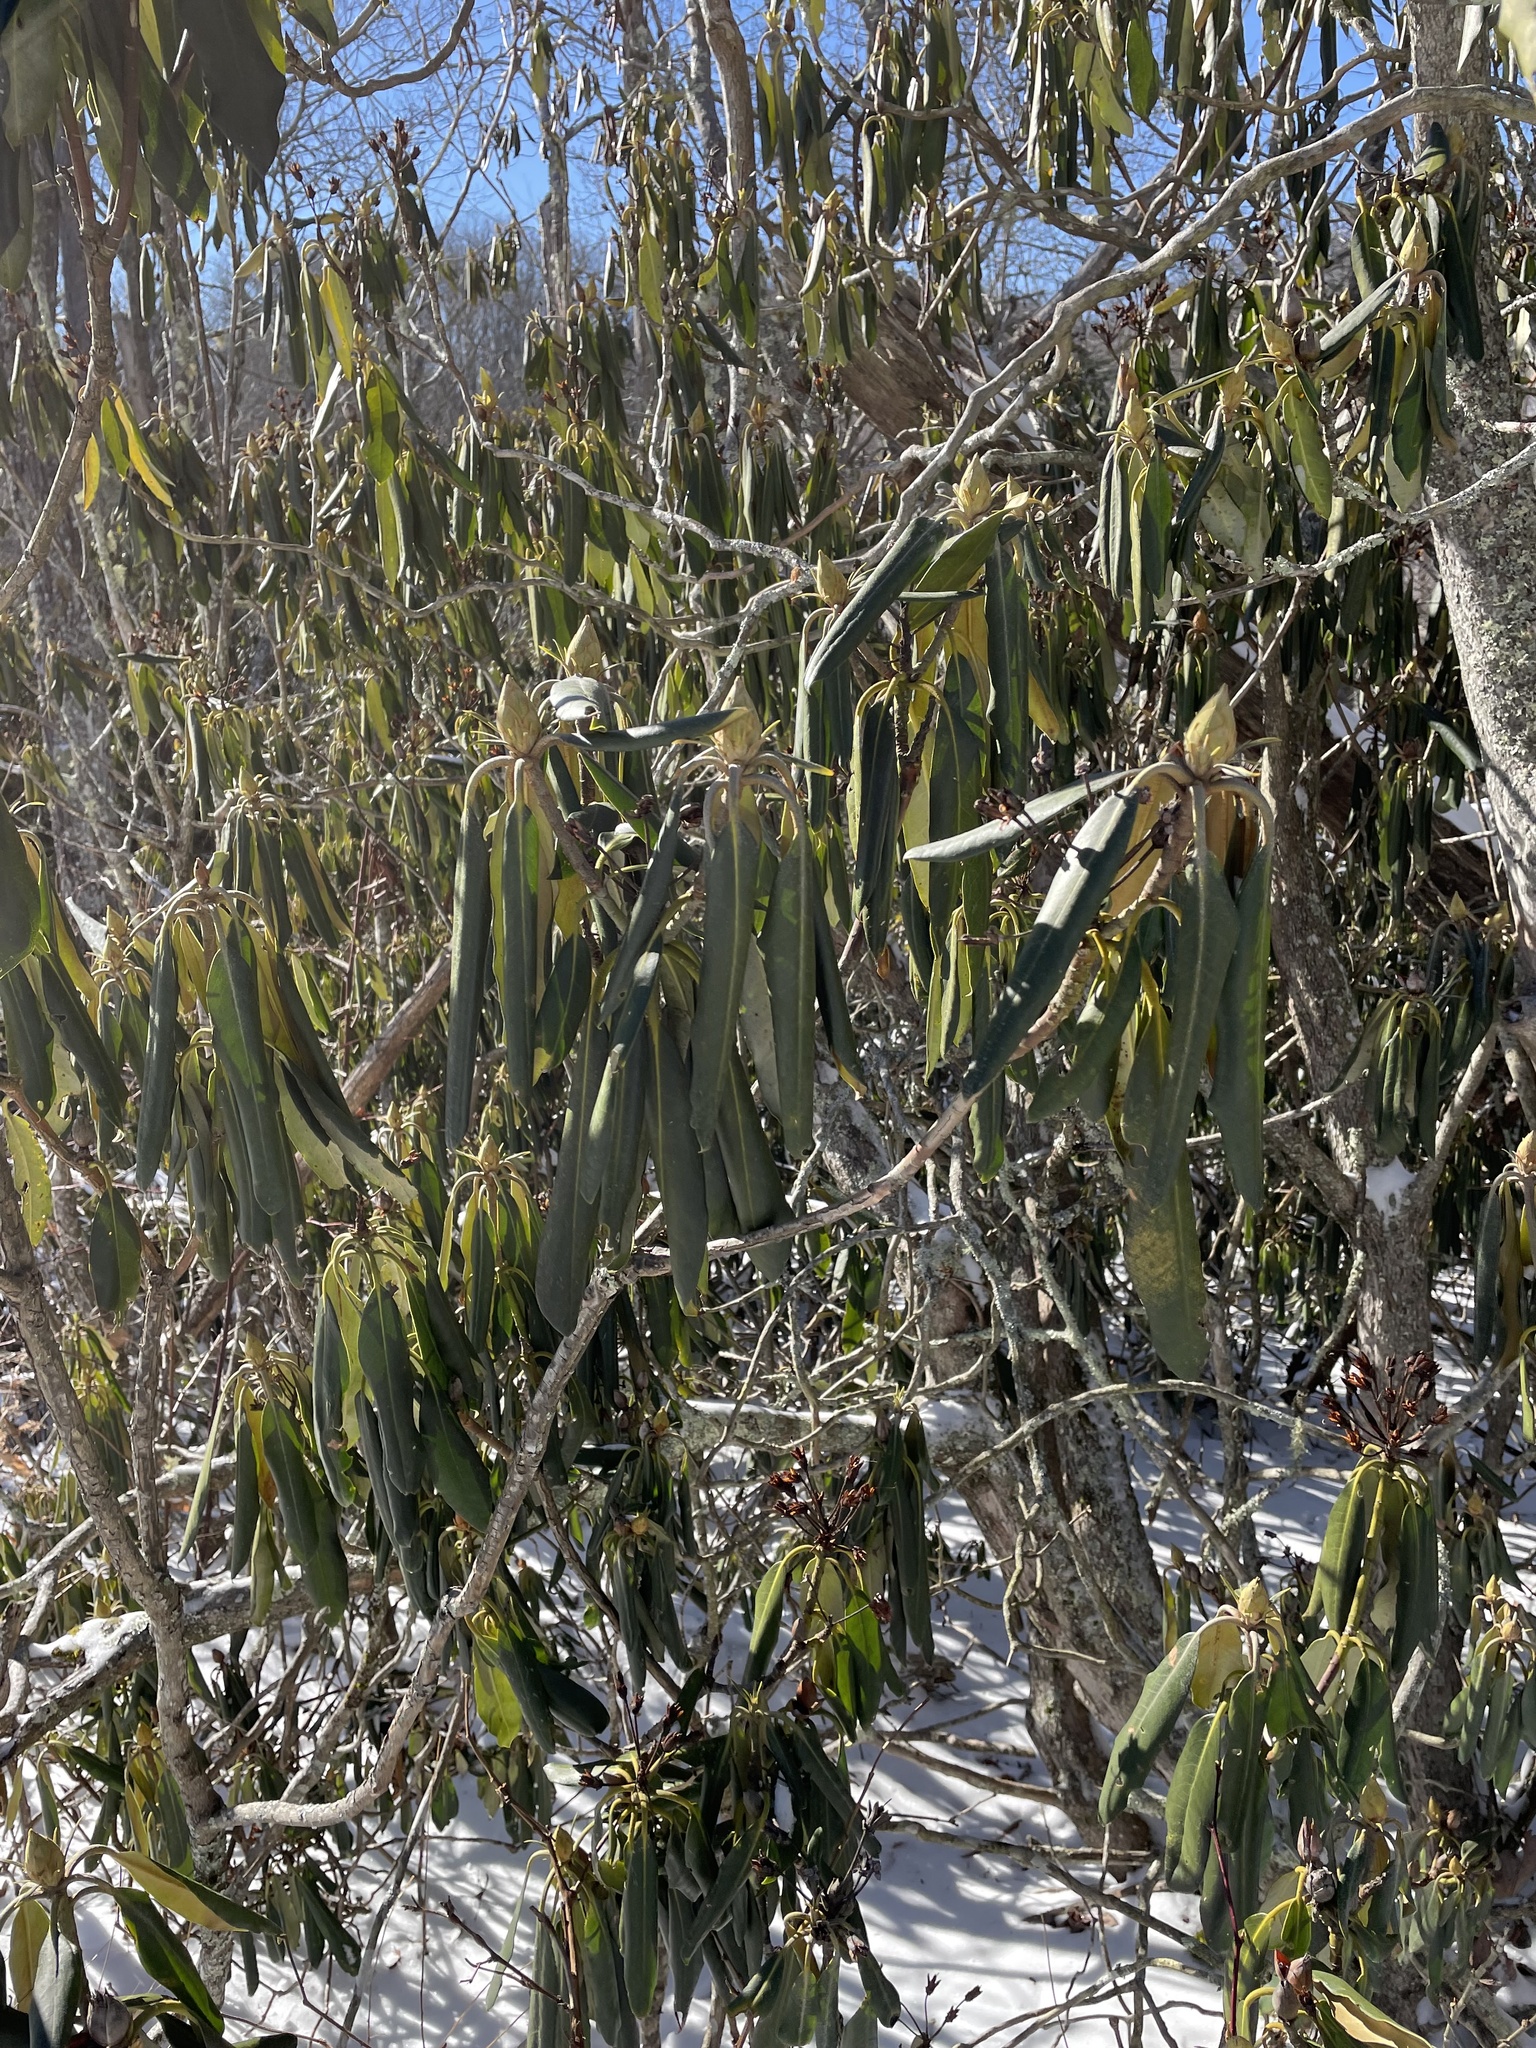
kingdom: Plantae
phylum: Tracheophyta
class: Magnoliopsida
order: Ericales
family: Ericaceae
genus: Rhododendron
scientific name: Rhododendron maximum
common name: Great rhododendron
